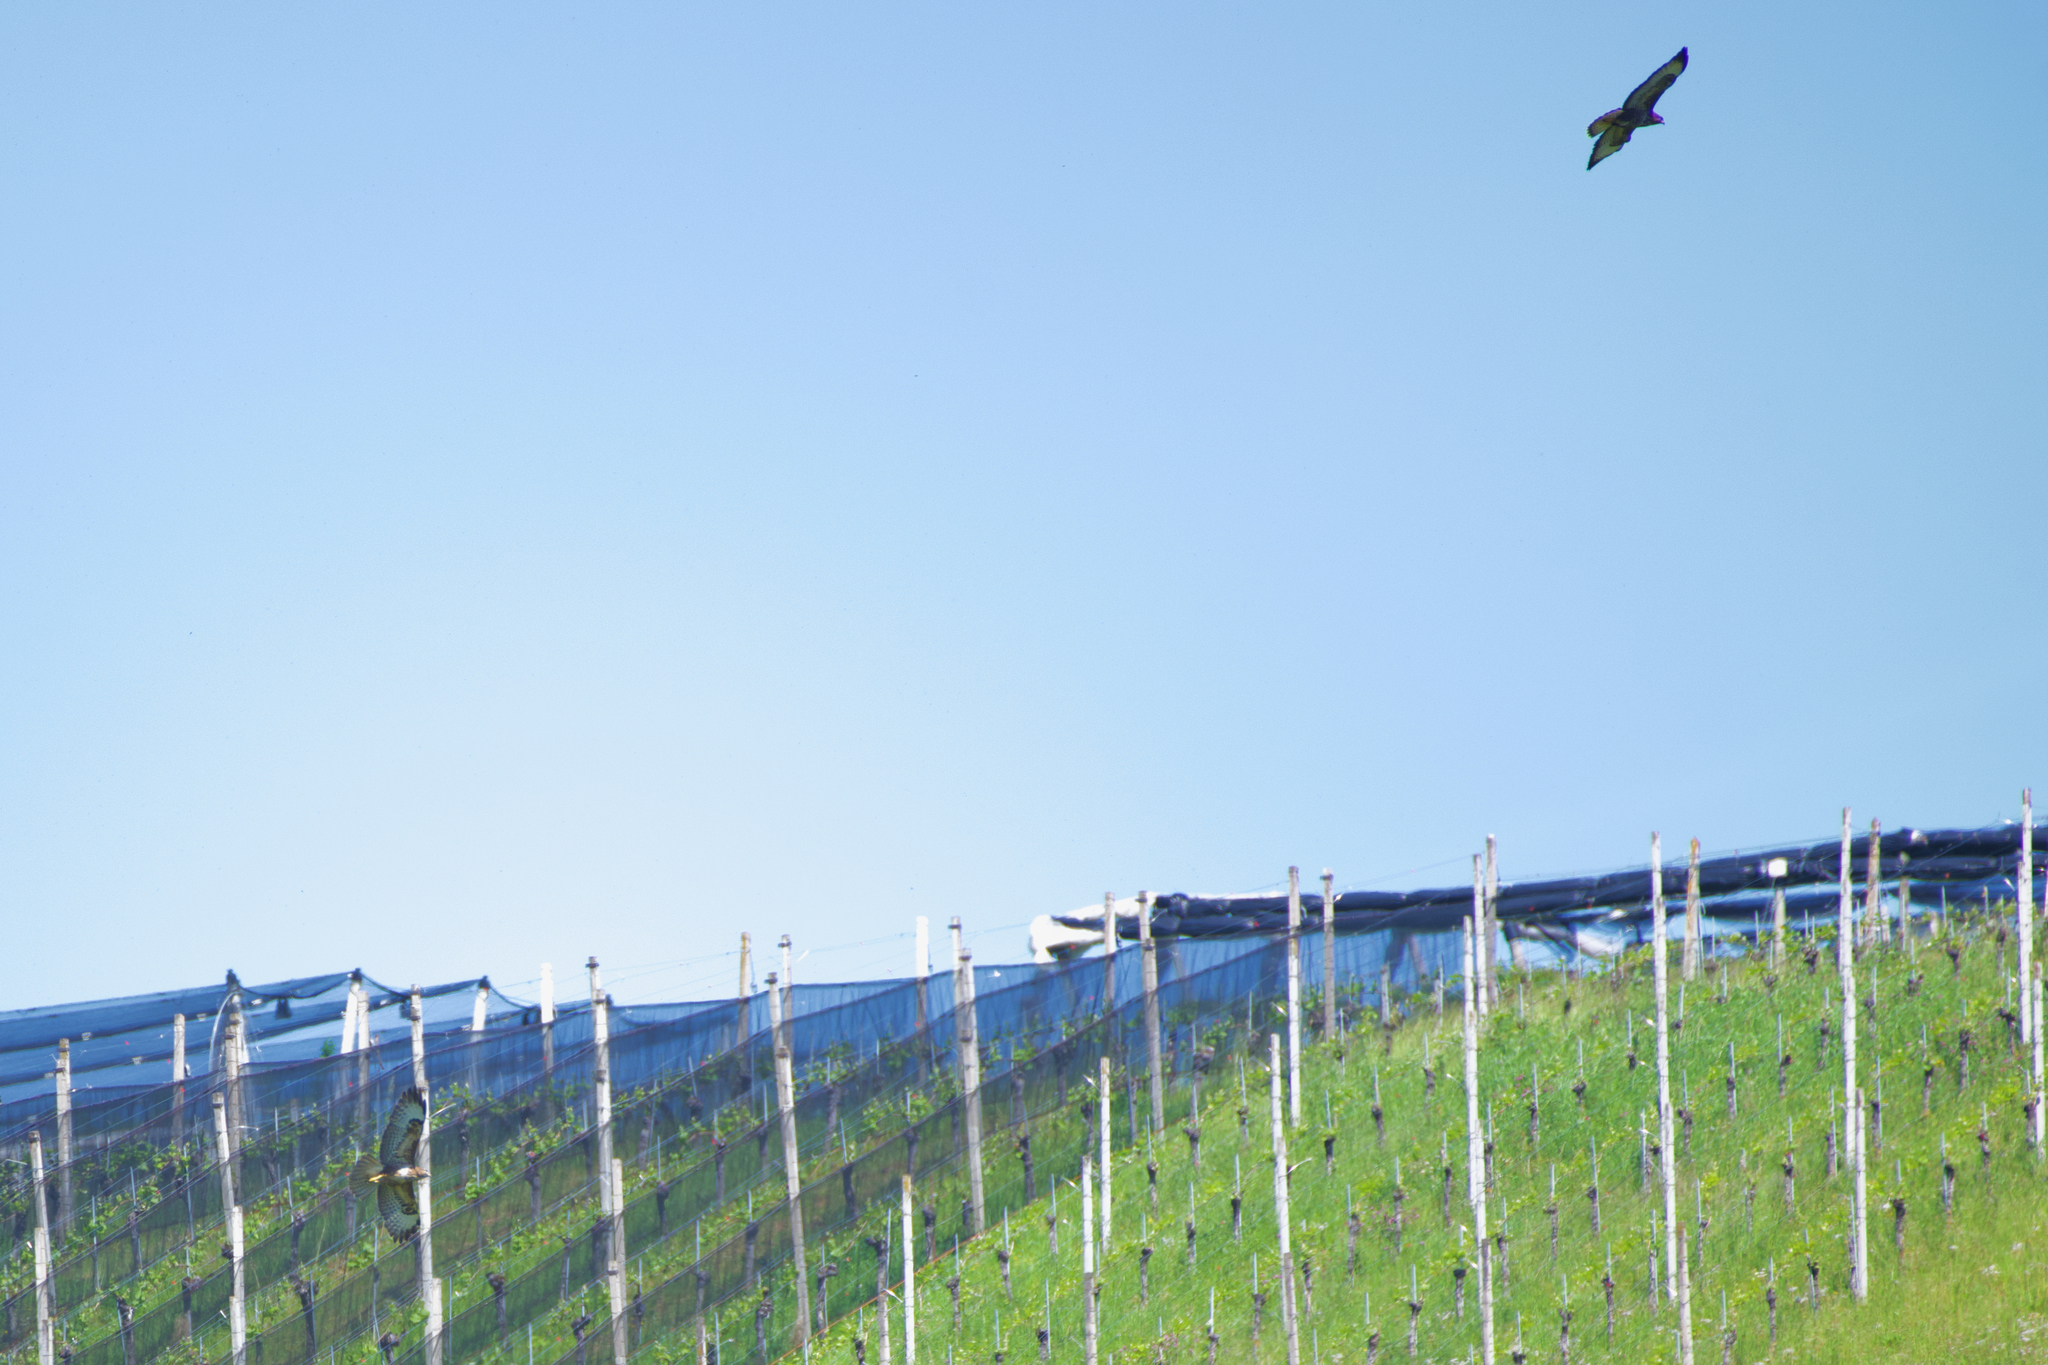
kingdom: Animalia
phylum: Chordata
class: Aves
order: Accipitriformes
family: Accipitridae
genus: Buteo
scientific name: Buteo buteo
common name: Common buzzard
